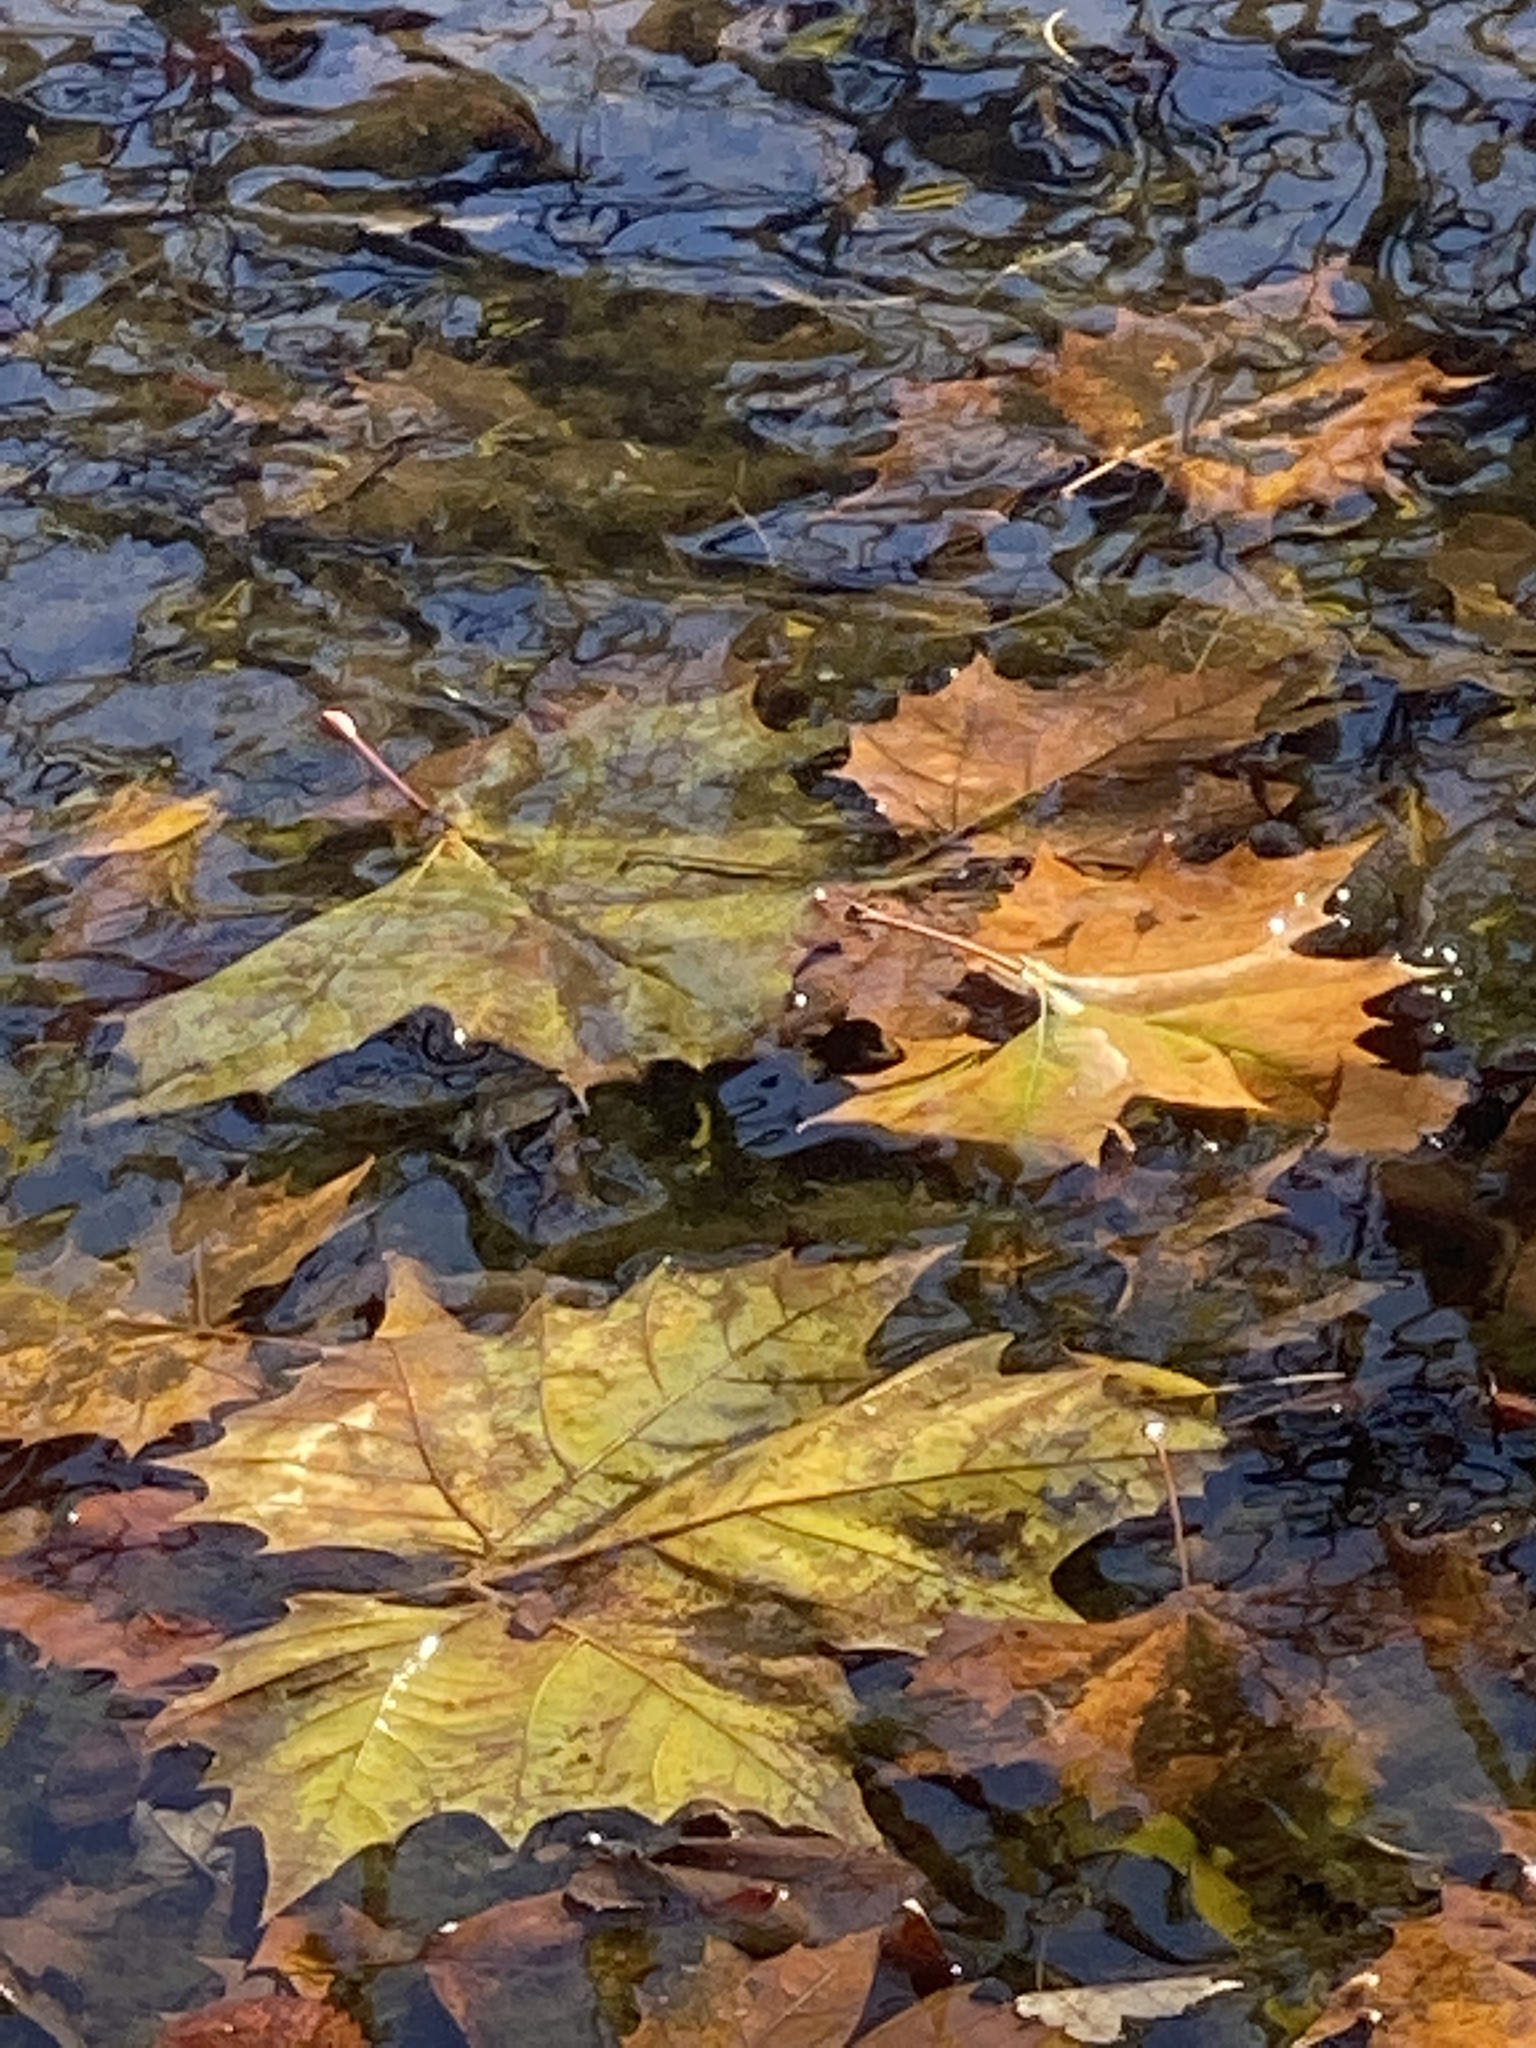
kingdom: Plantae
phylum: Tracheophyta
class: Magnoliopsida
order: Proteales
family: Platanaceae
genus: Platanus
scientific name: Platanus occidentalis
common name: American sycamore
